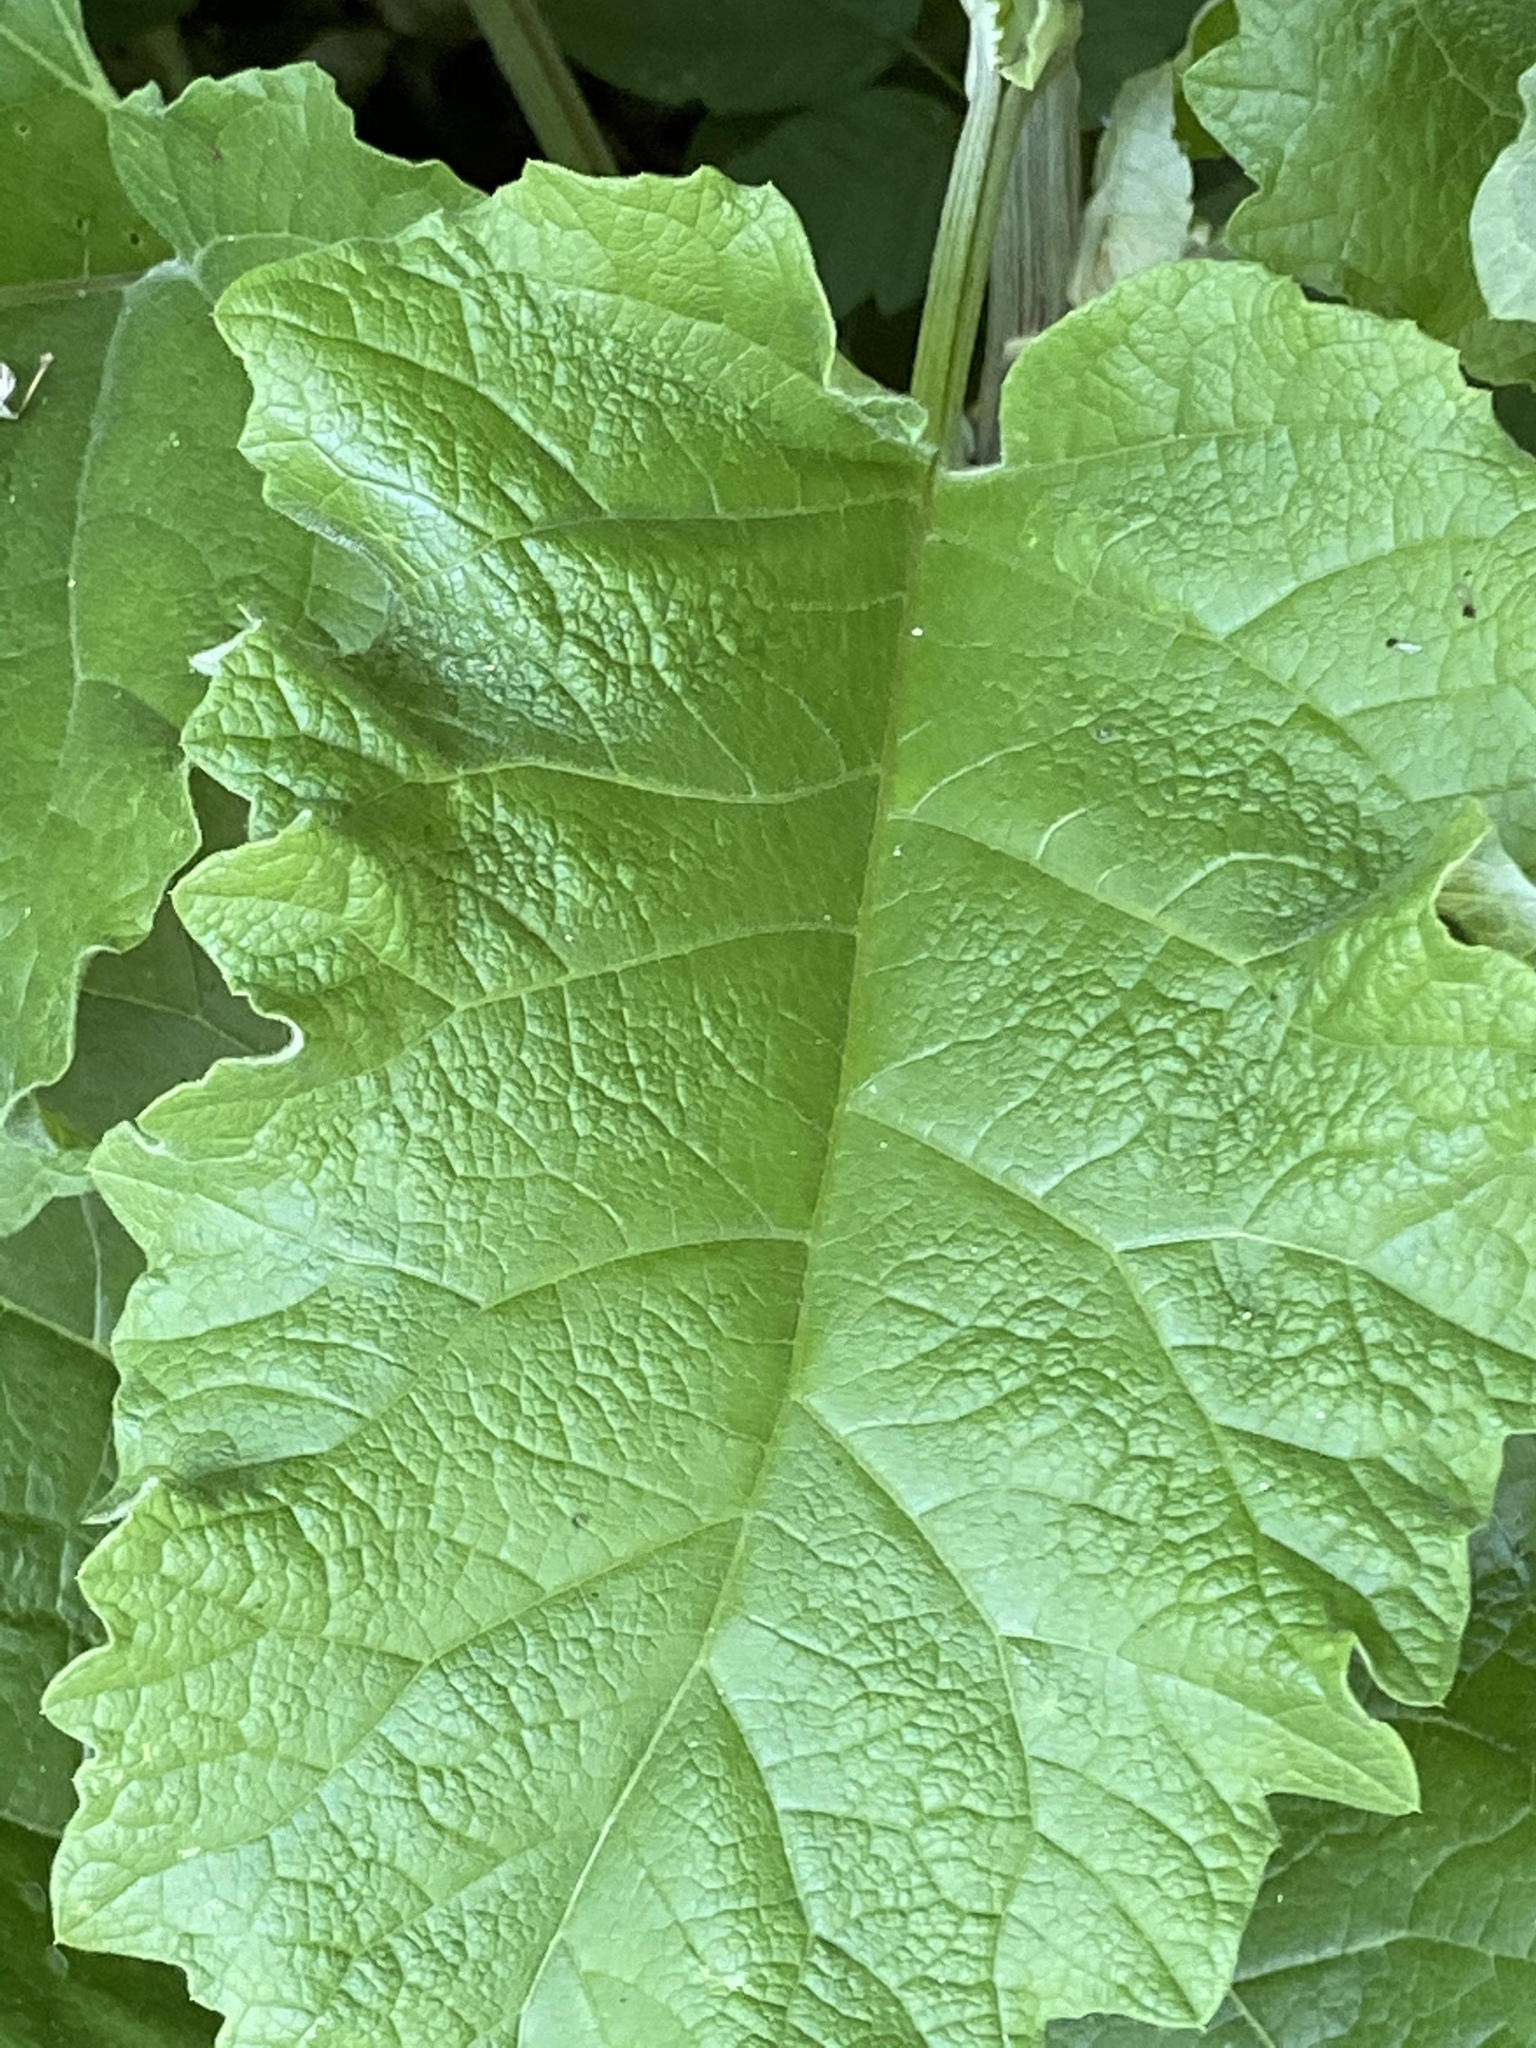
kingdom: Plantae
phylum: Tracheophyta
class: Magnoliopsida
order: Asterales
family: Asteraceae
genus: Arctium
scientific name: Arctium
